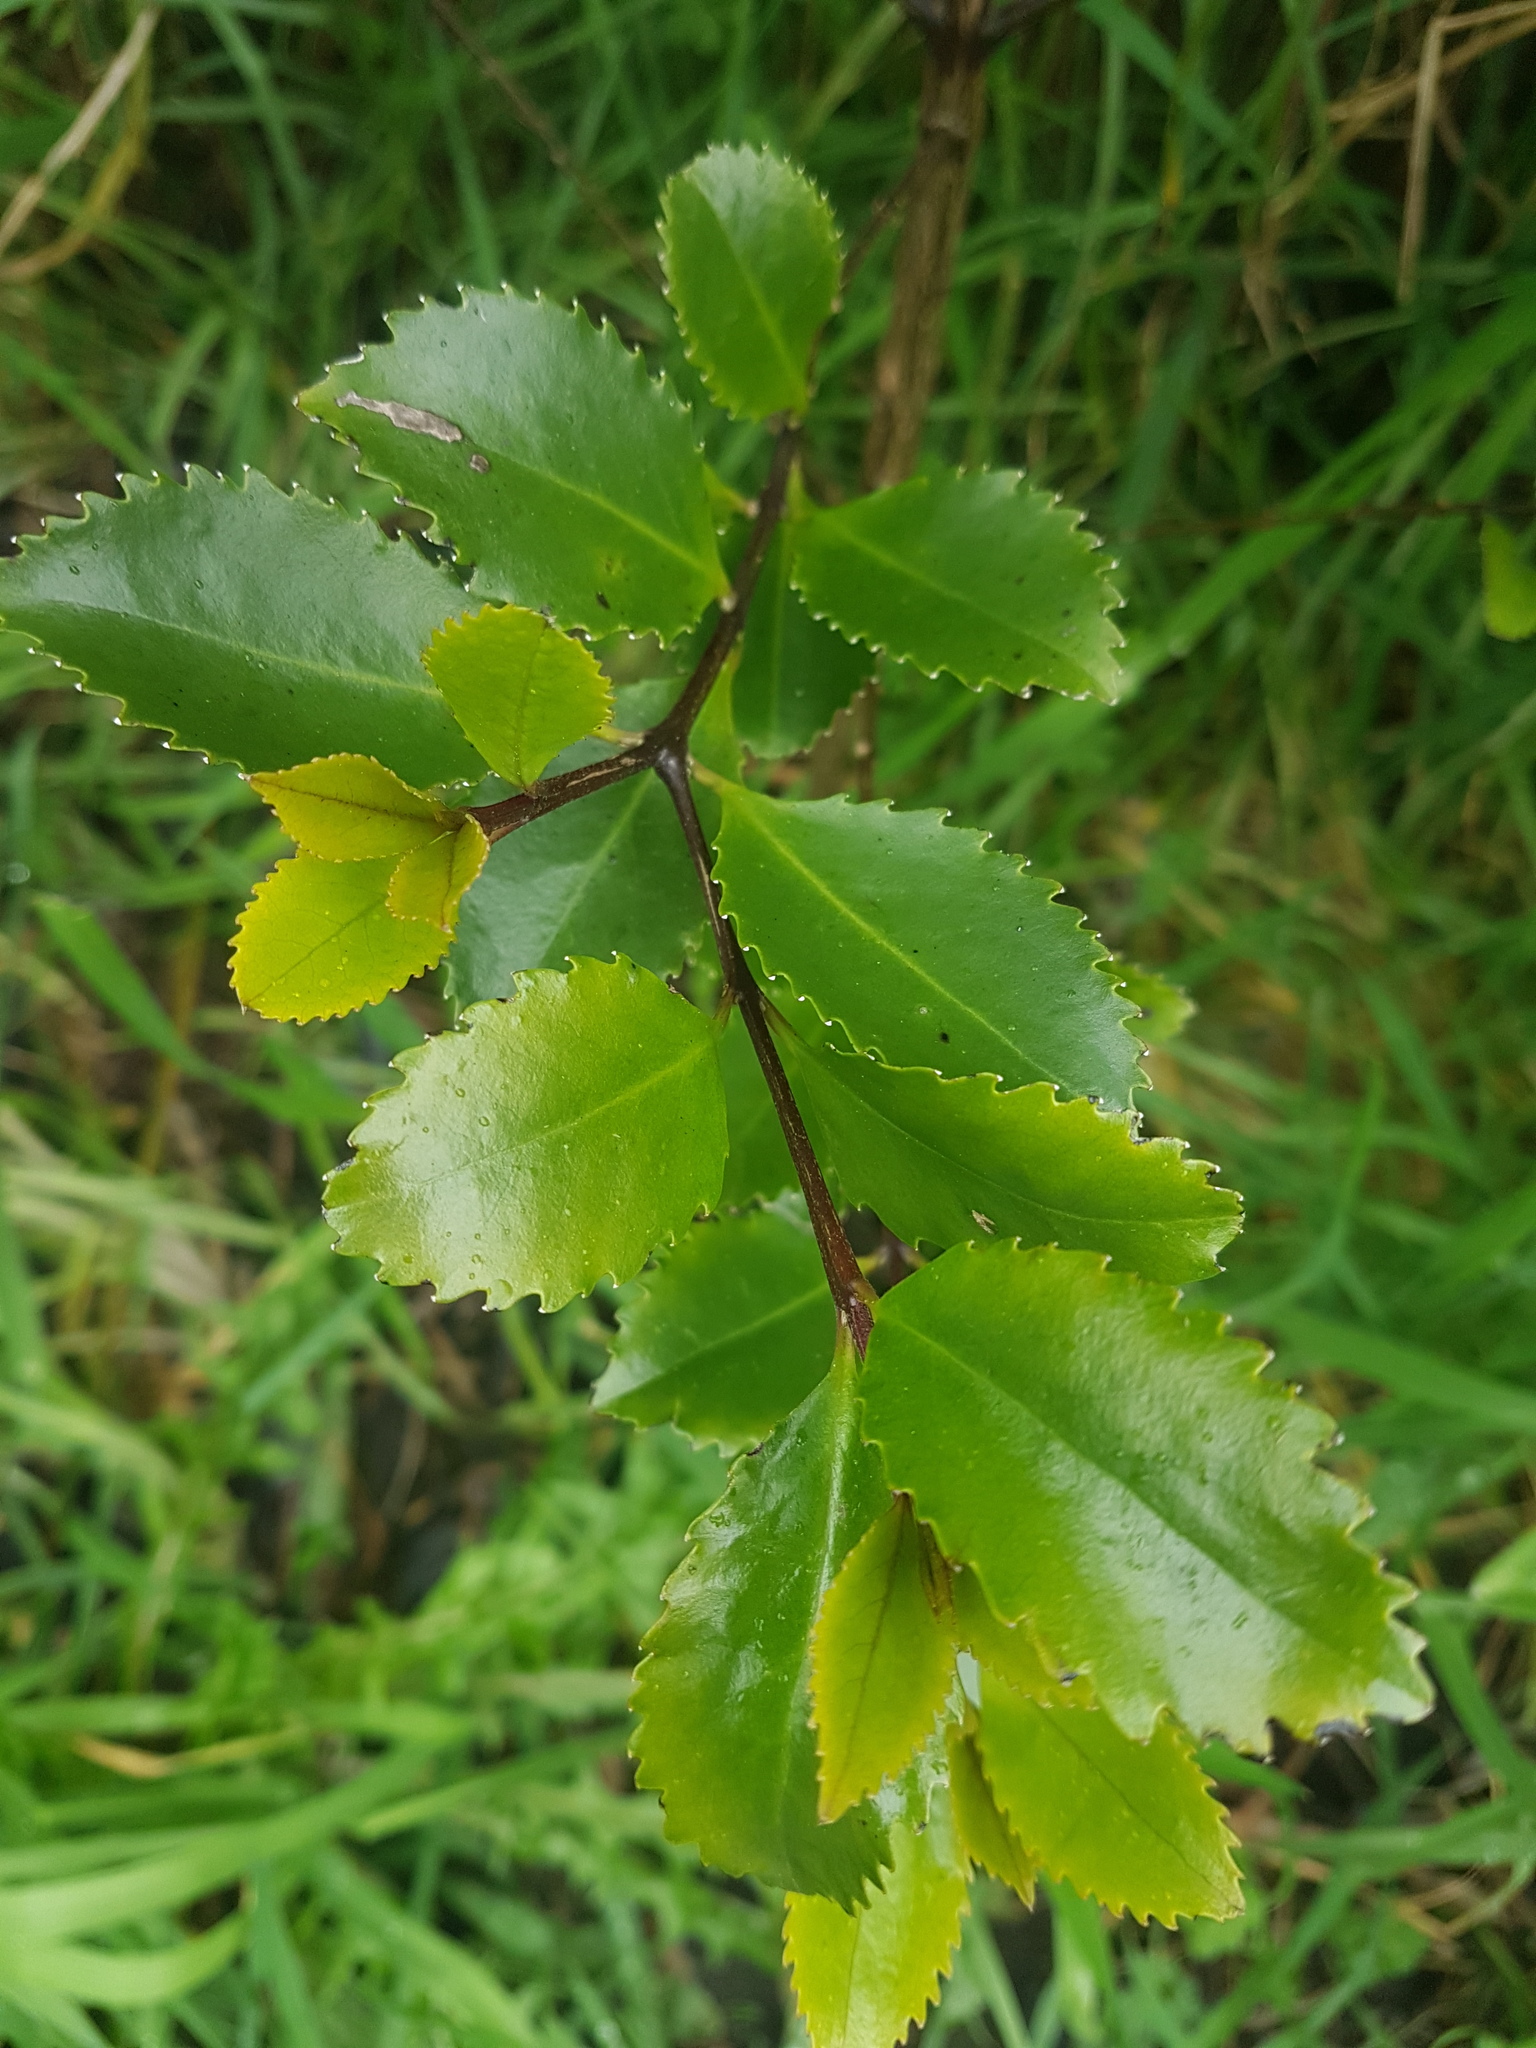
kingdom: Plantae
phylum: Tracheophyta
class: Magnoliopsida
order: Laurales
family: Atherospermataceae
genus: Laurelia
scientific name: Laurelia novae-zelandiae
